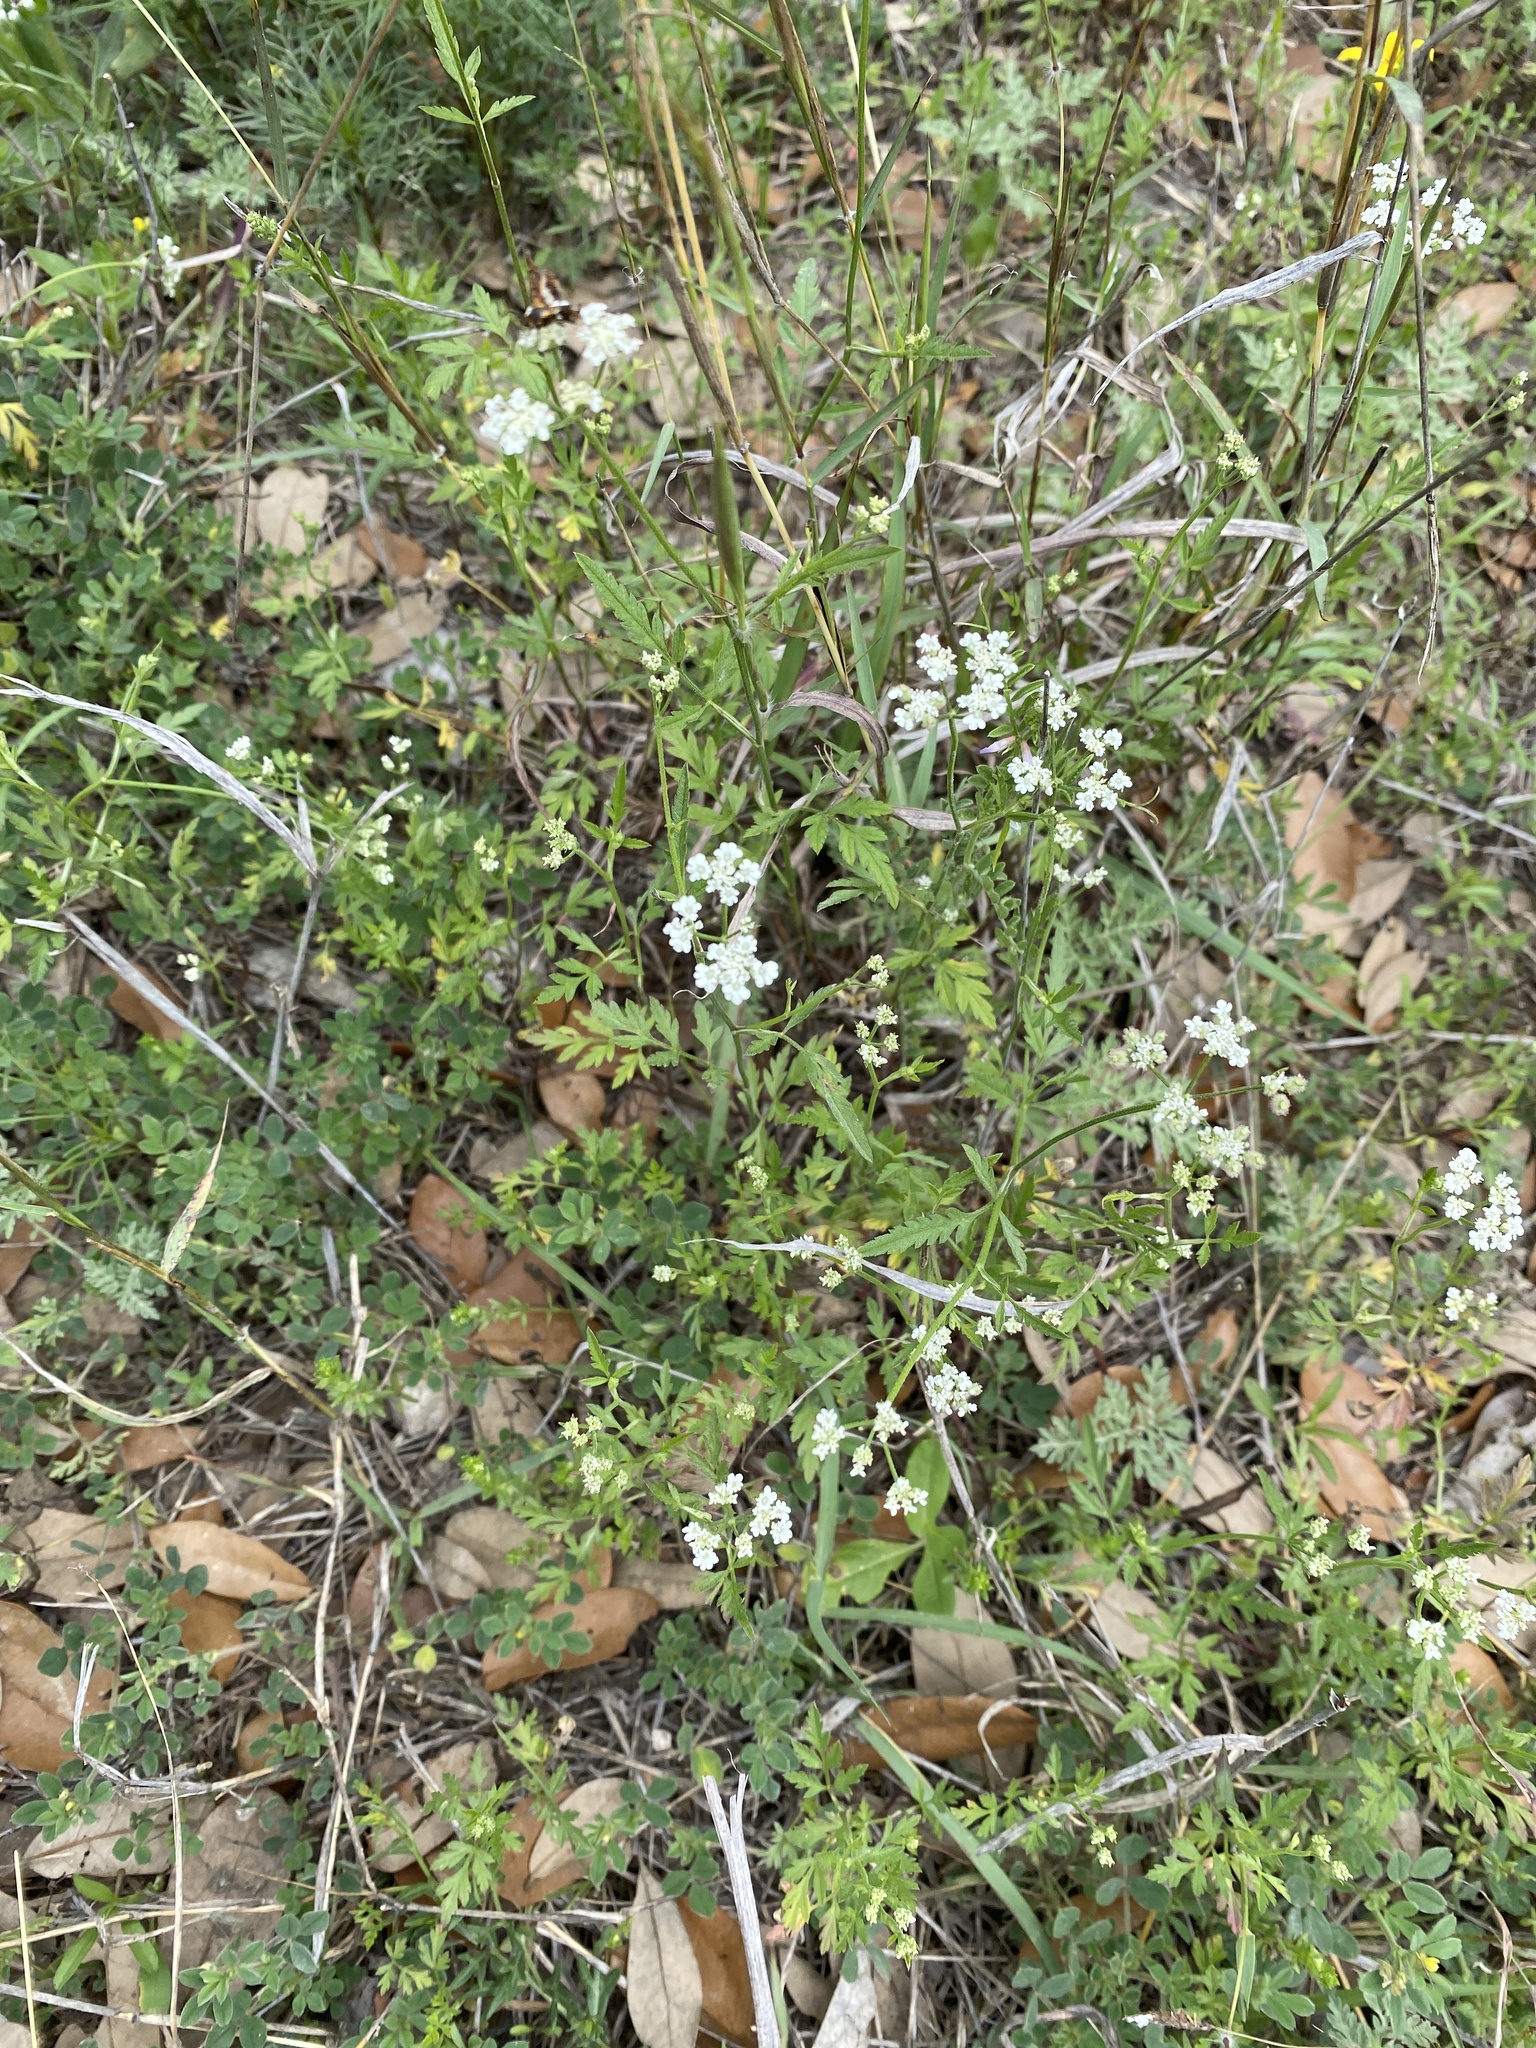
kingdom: Plantae
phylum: Tracheophyta
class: Magnoliopsida
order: Apiales
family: Apiaceae
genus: Torilis
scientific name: Torilis arvensis
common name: Spreading hedge-parsley
